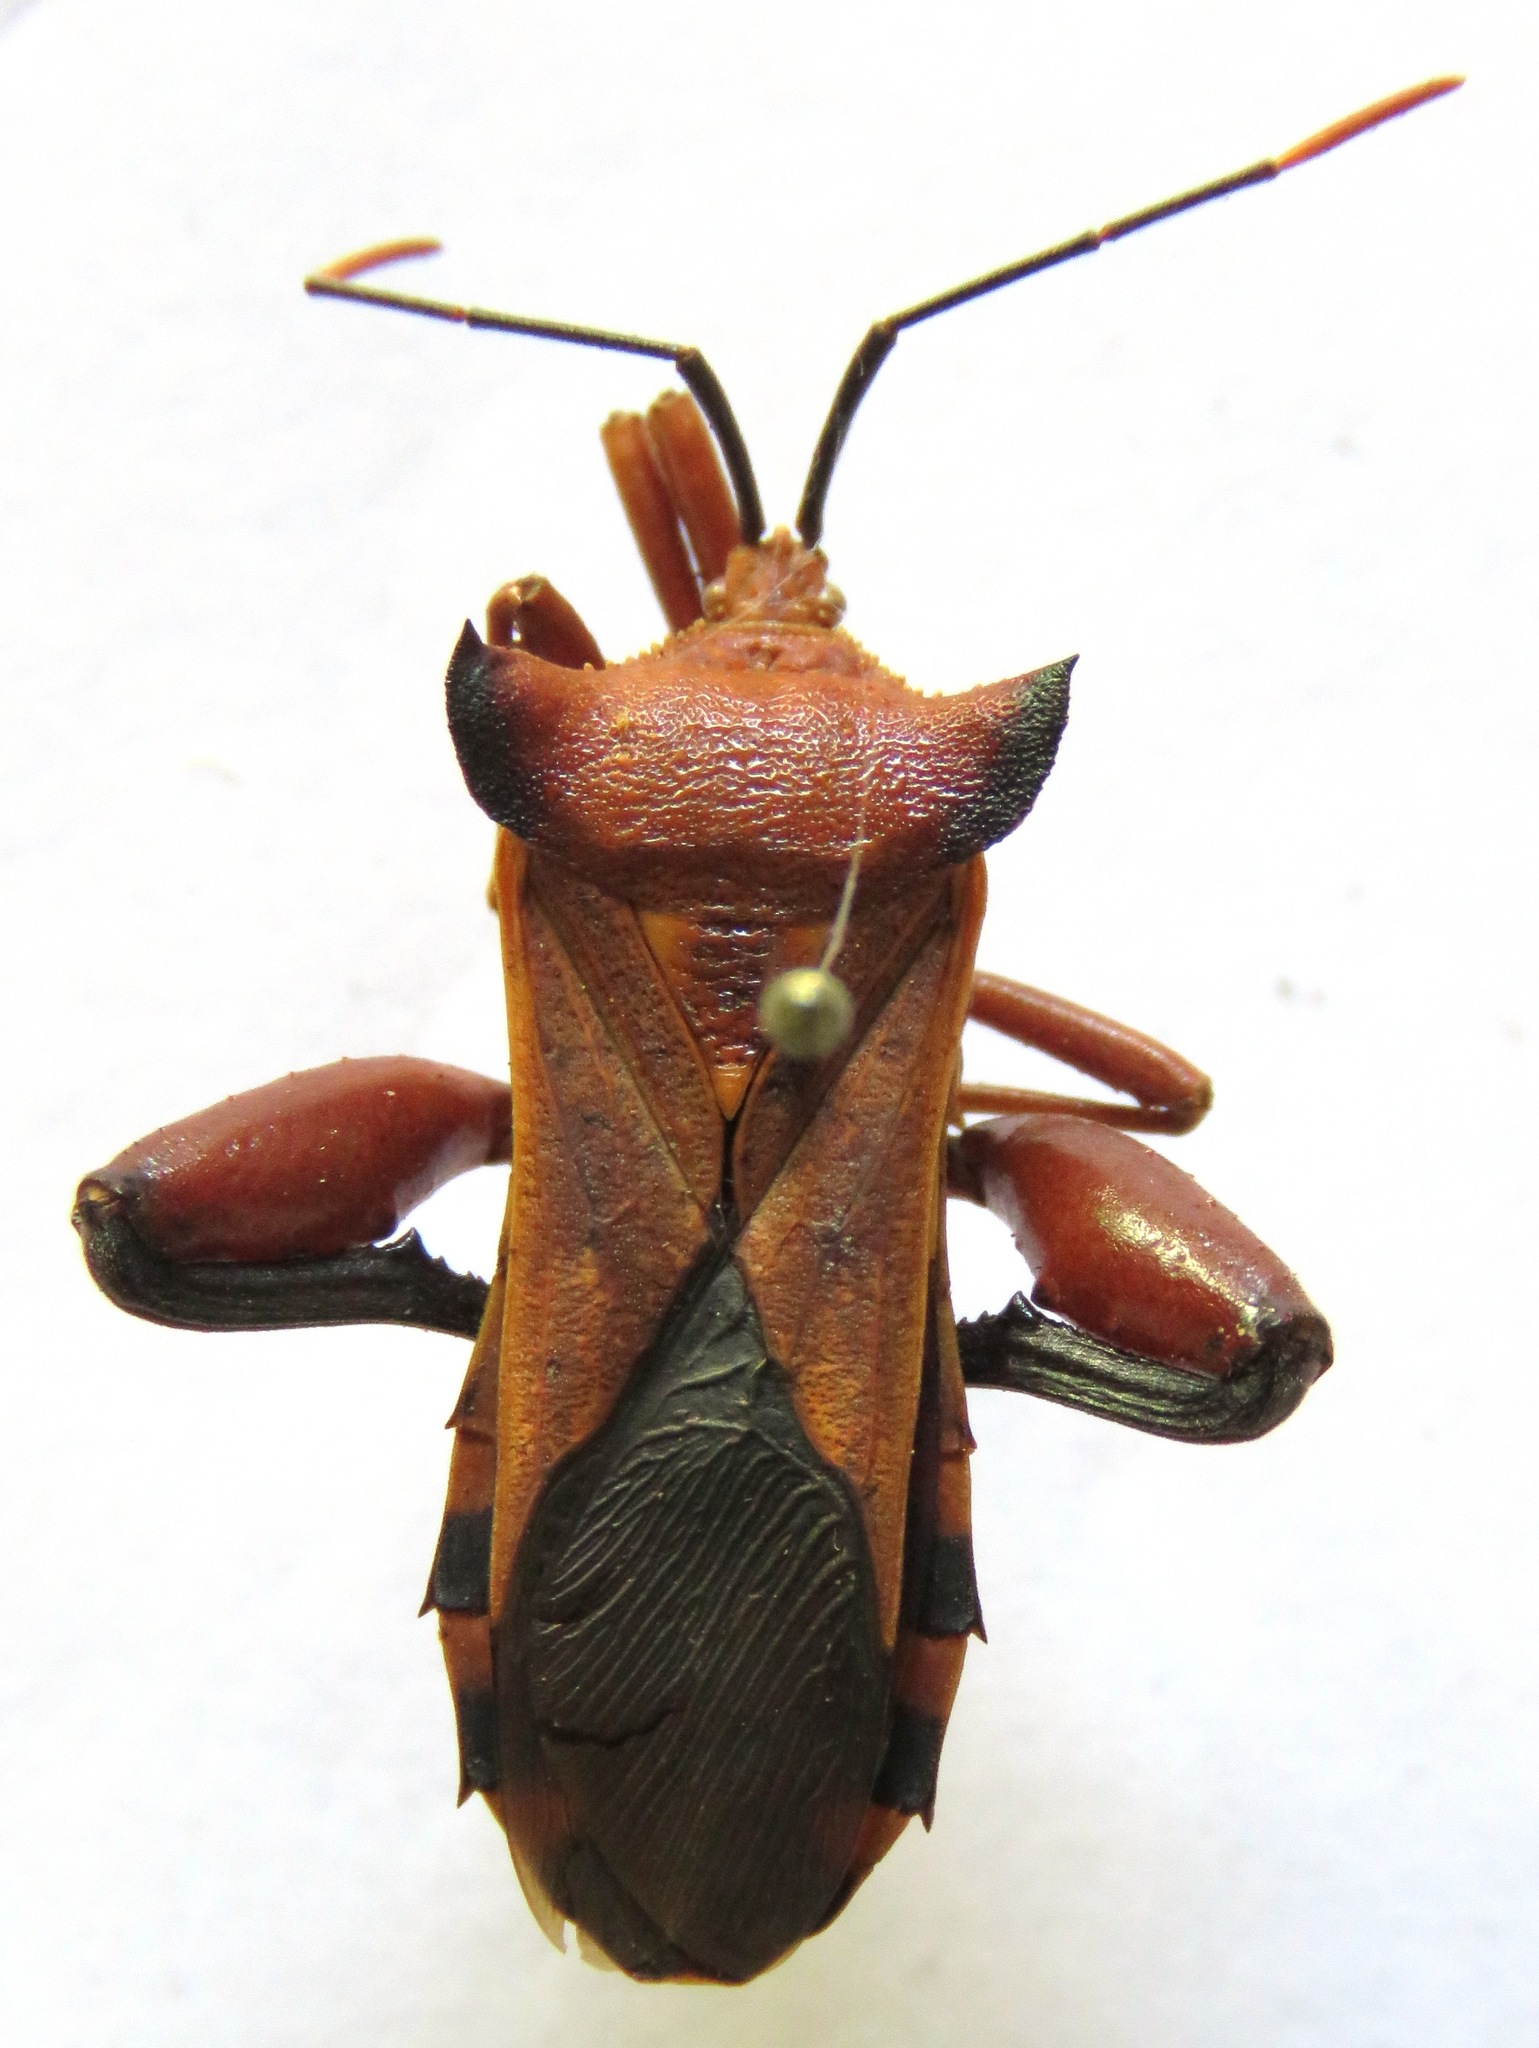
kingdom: Animalia
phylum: Arthropoda
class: Insecta
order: Hemiptera
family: Coreidae
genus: Mozena
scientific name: Mozena lunata
